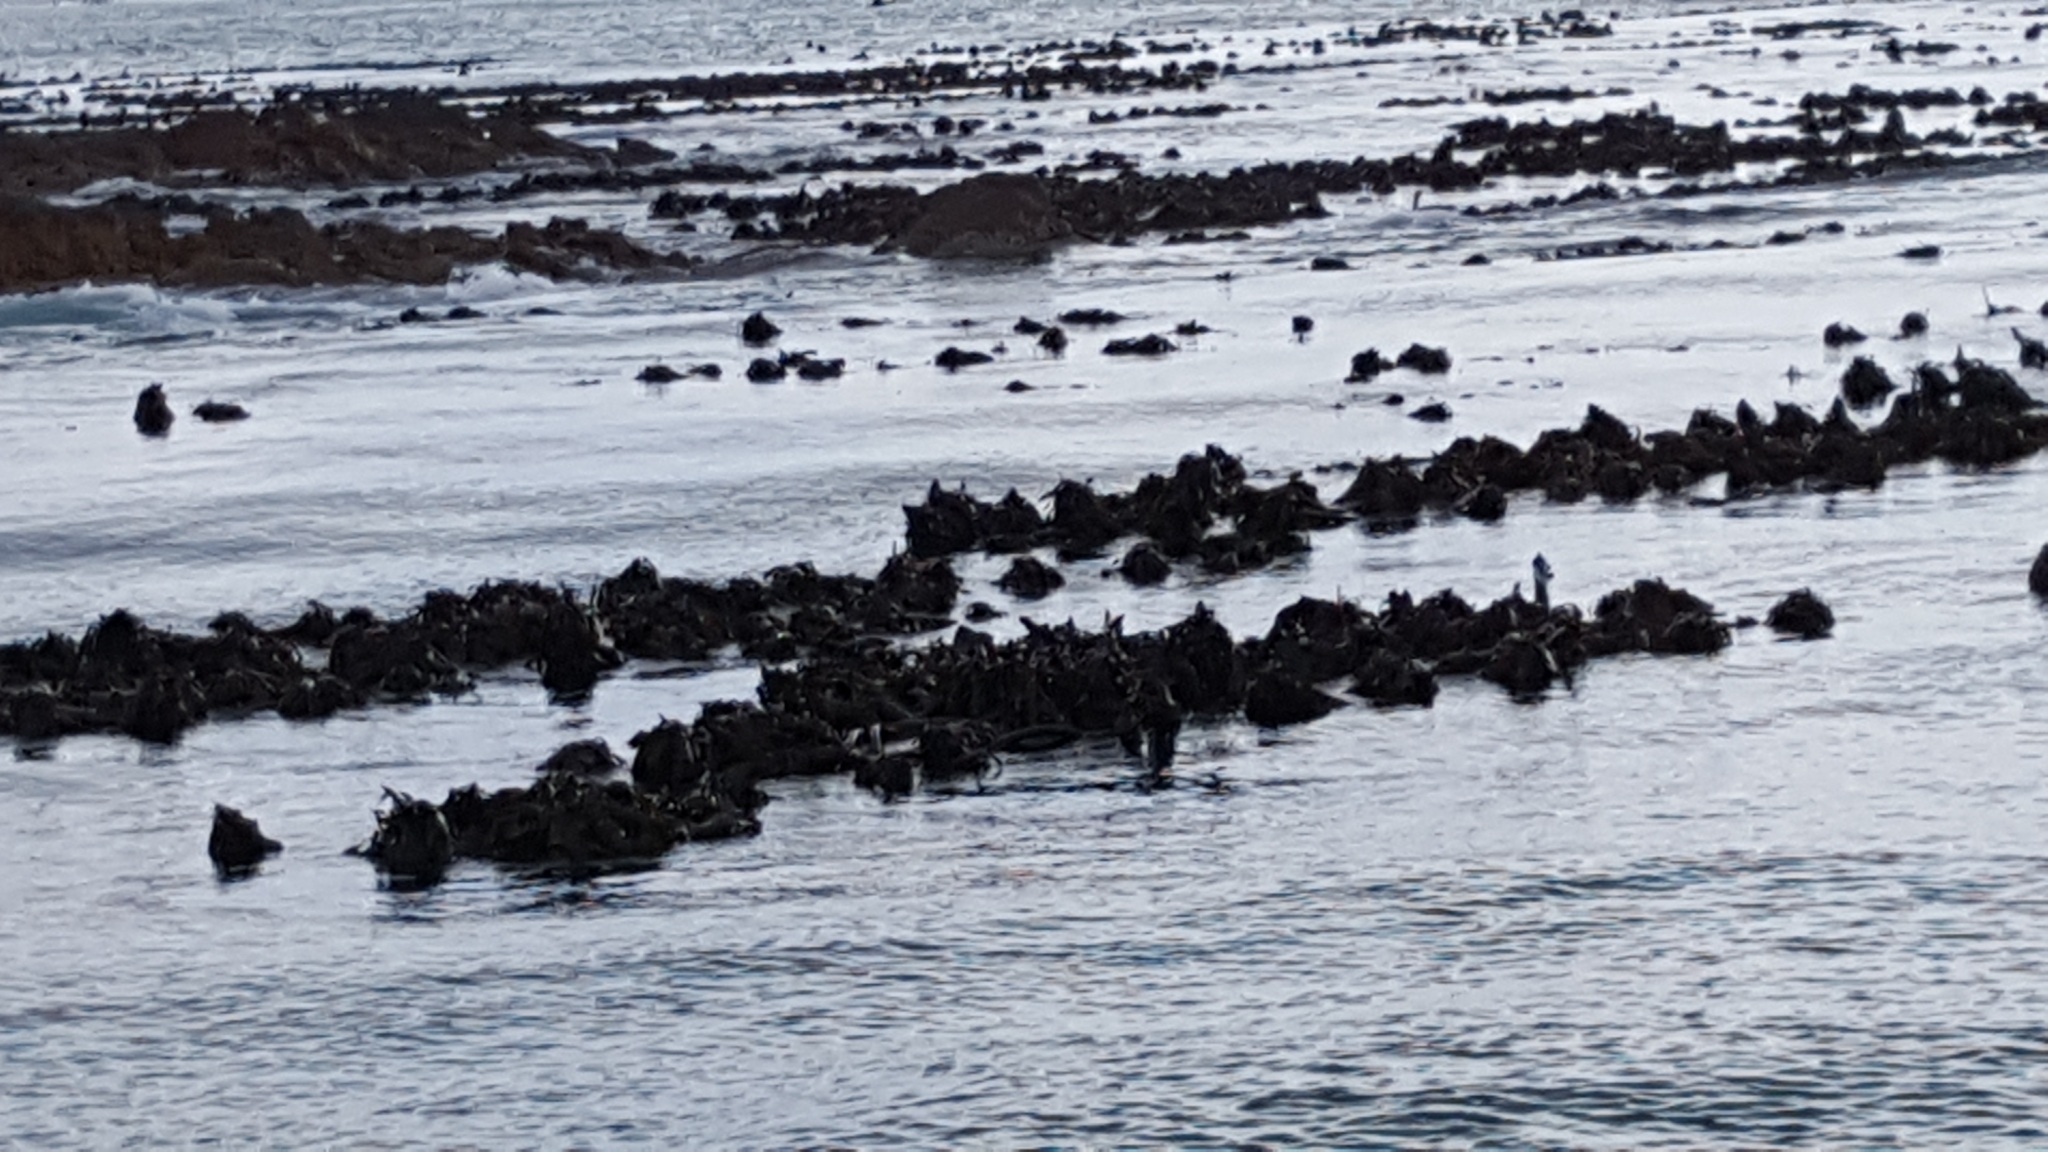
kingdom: Chromista
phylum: Ochrophyta
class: Phaeophyceae
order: Laminariales
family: Lessoniaceae
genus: Ecklonia
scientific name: Ecklonia
